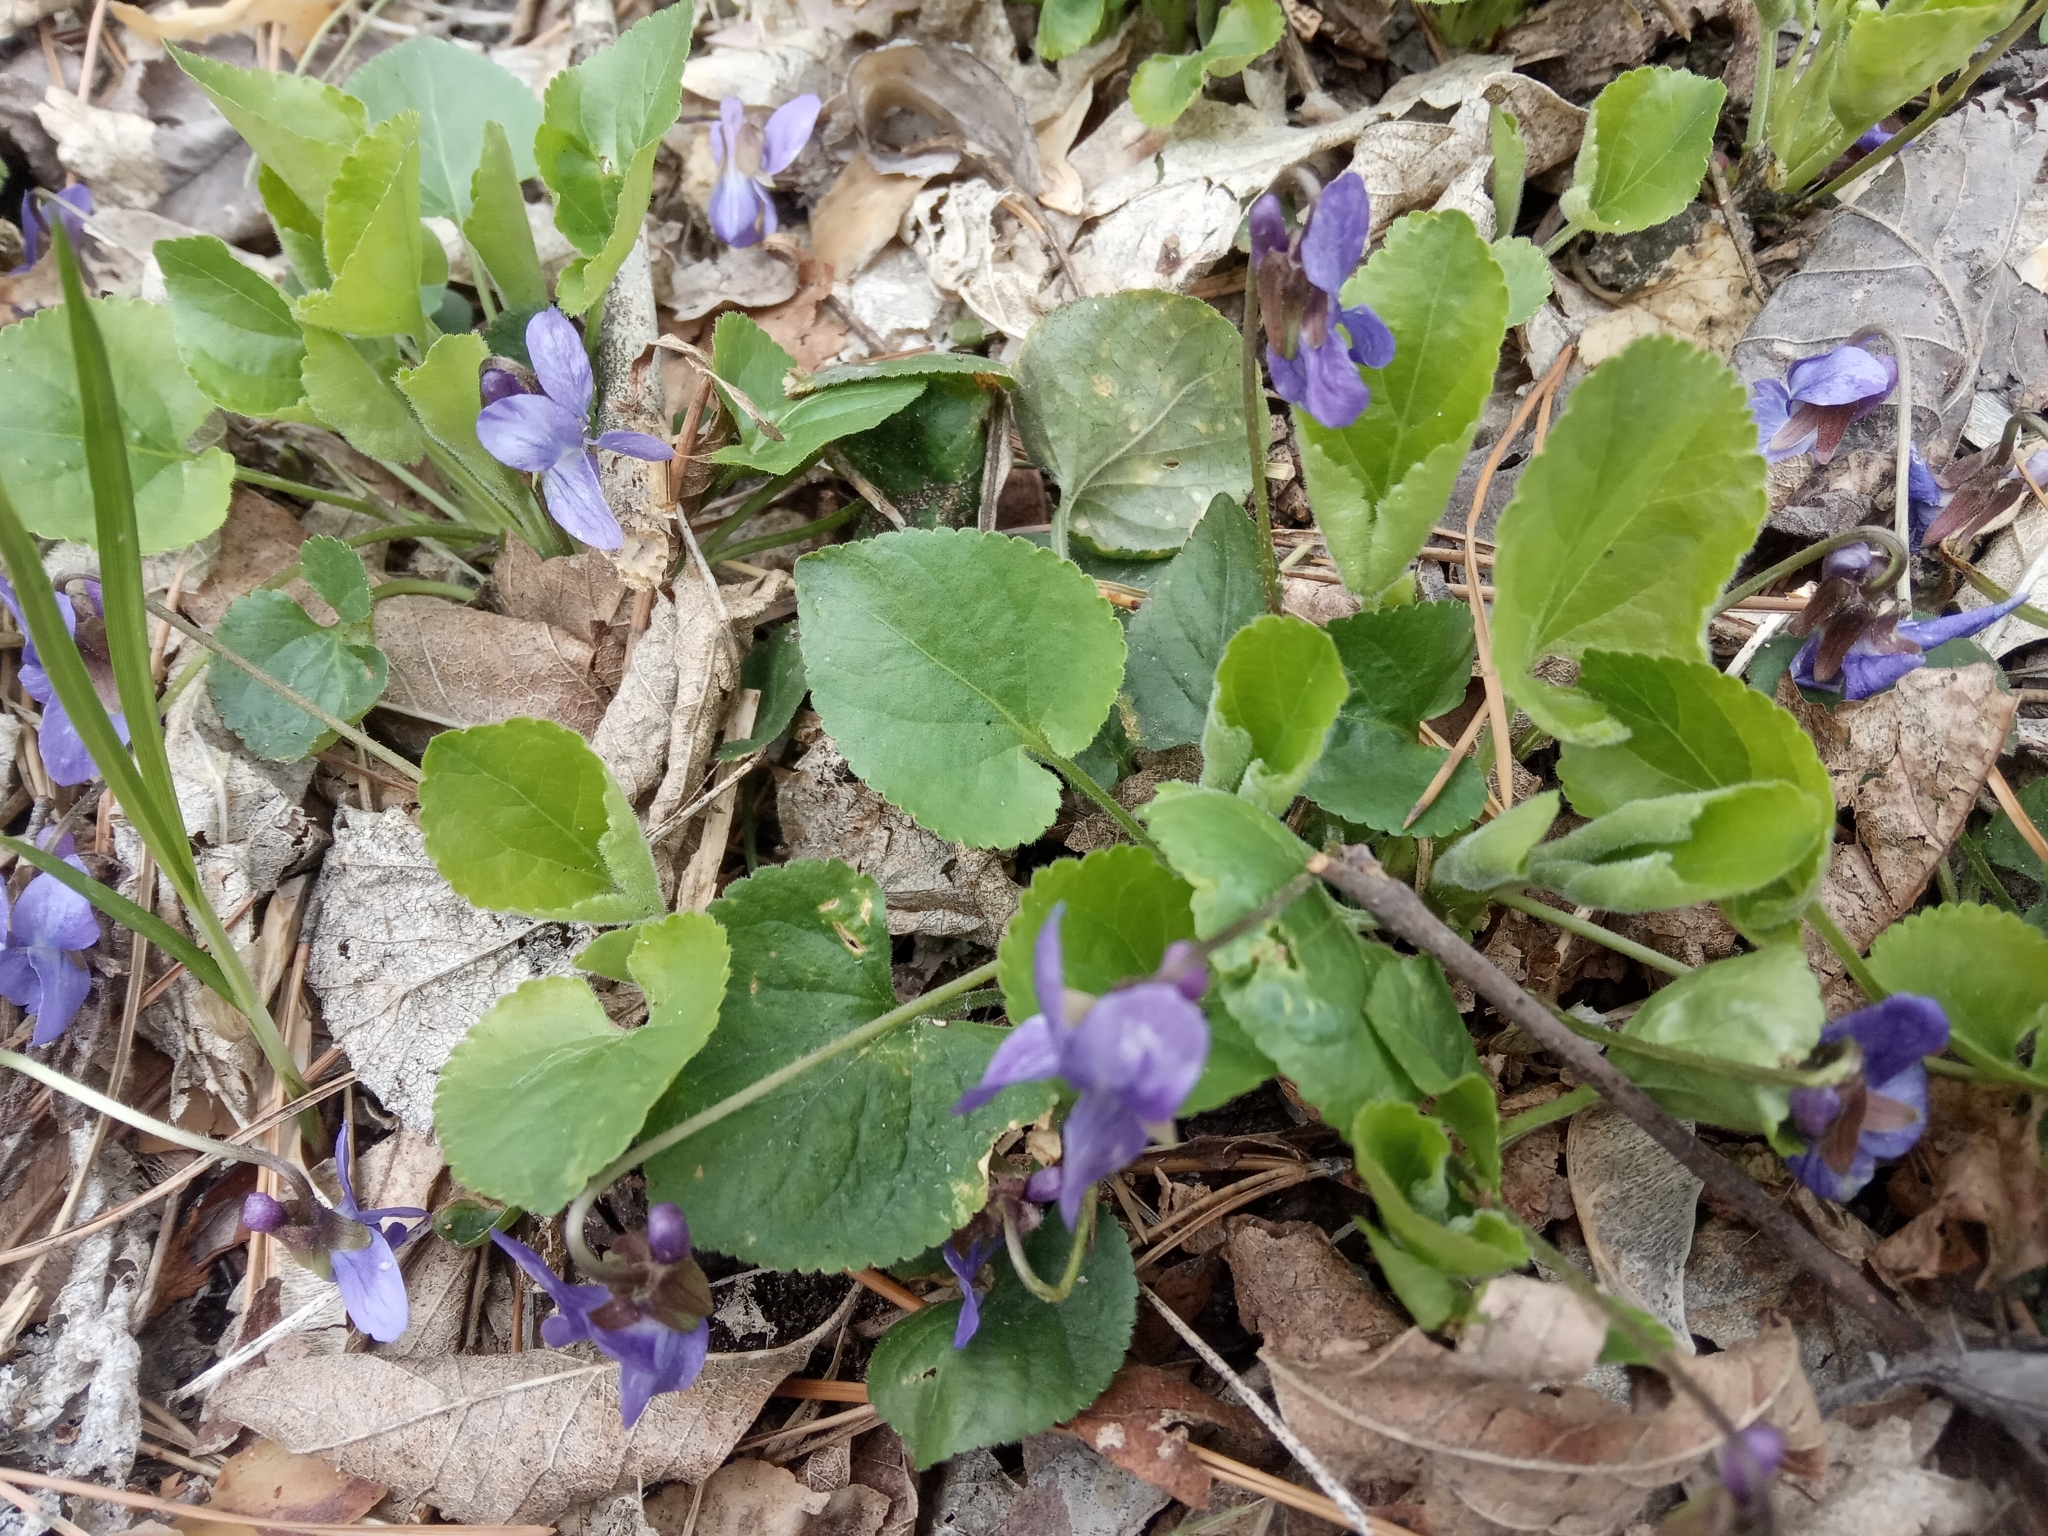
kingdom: Plantae
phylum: Tracheophyta
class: Magnoliopsida
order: Malpighiales
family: Violaceae
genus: Viola
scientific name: Viola odorata
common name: Sweet violet
